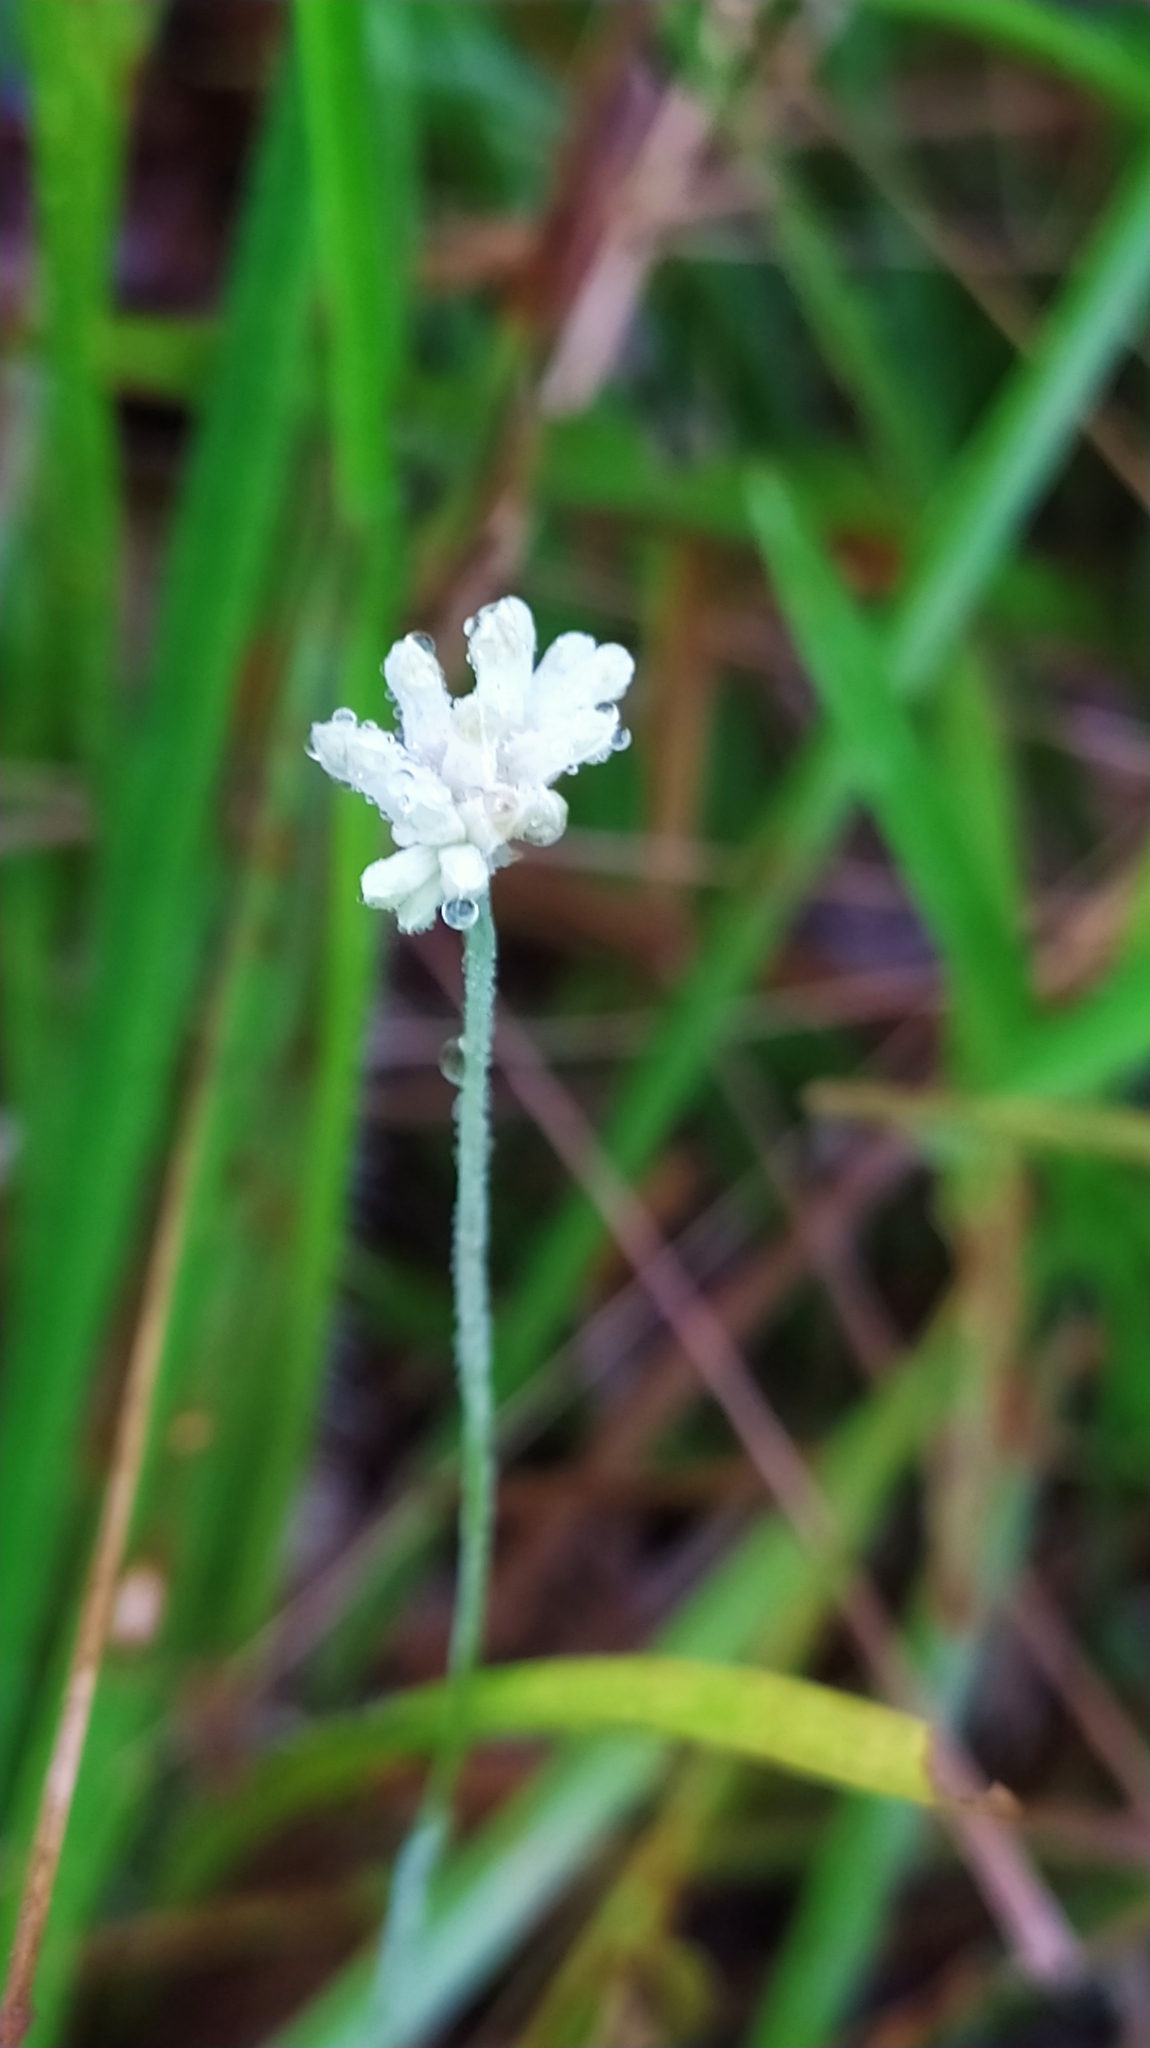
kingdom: Plantae
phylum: Tracheophyta
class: Liliopsida
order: Dioscoreales
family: Burmanniaceae
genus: Burmannia
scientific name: Burmannia capitata
